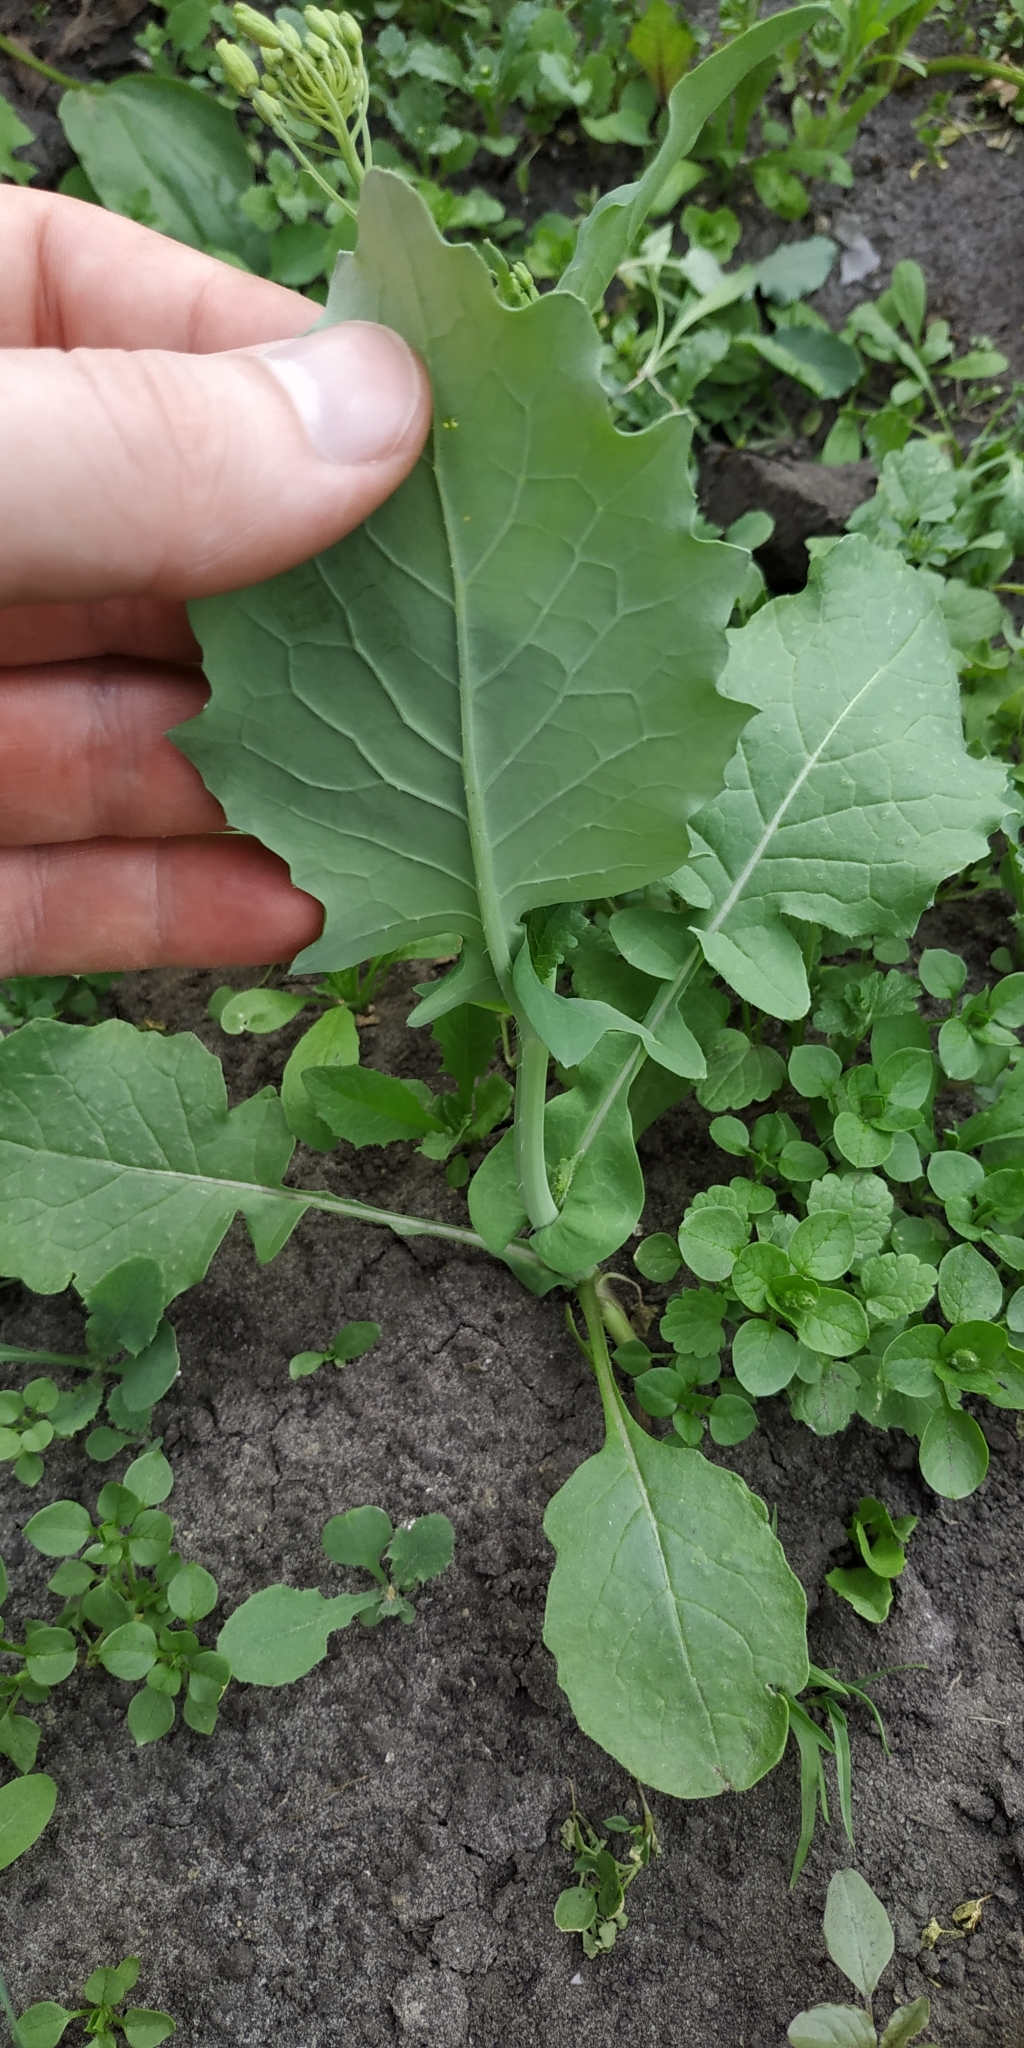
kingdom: Plantae
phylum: Tracheophyta
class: Magnoliopsida
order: Brassicales
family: Brassicaceae
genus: Brassica
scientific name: Brassica napus
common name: Rape
